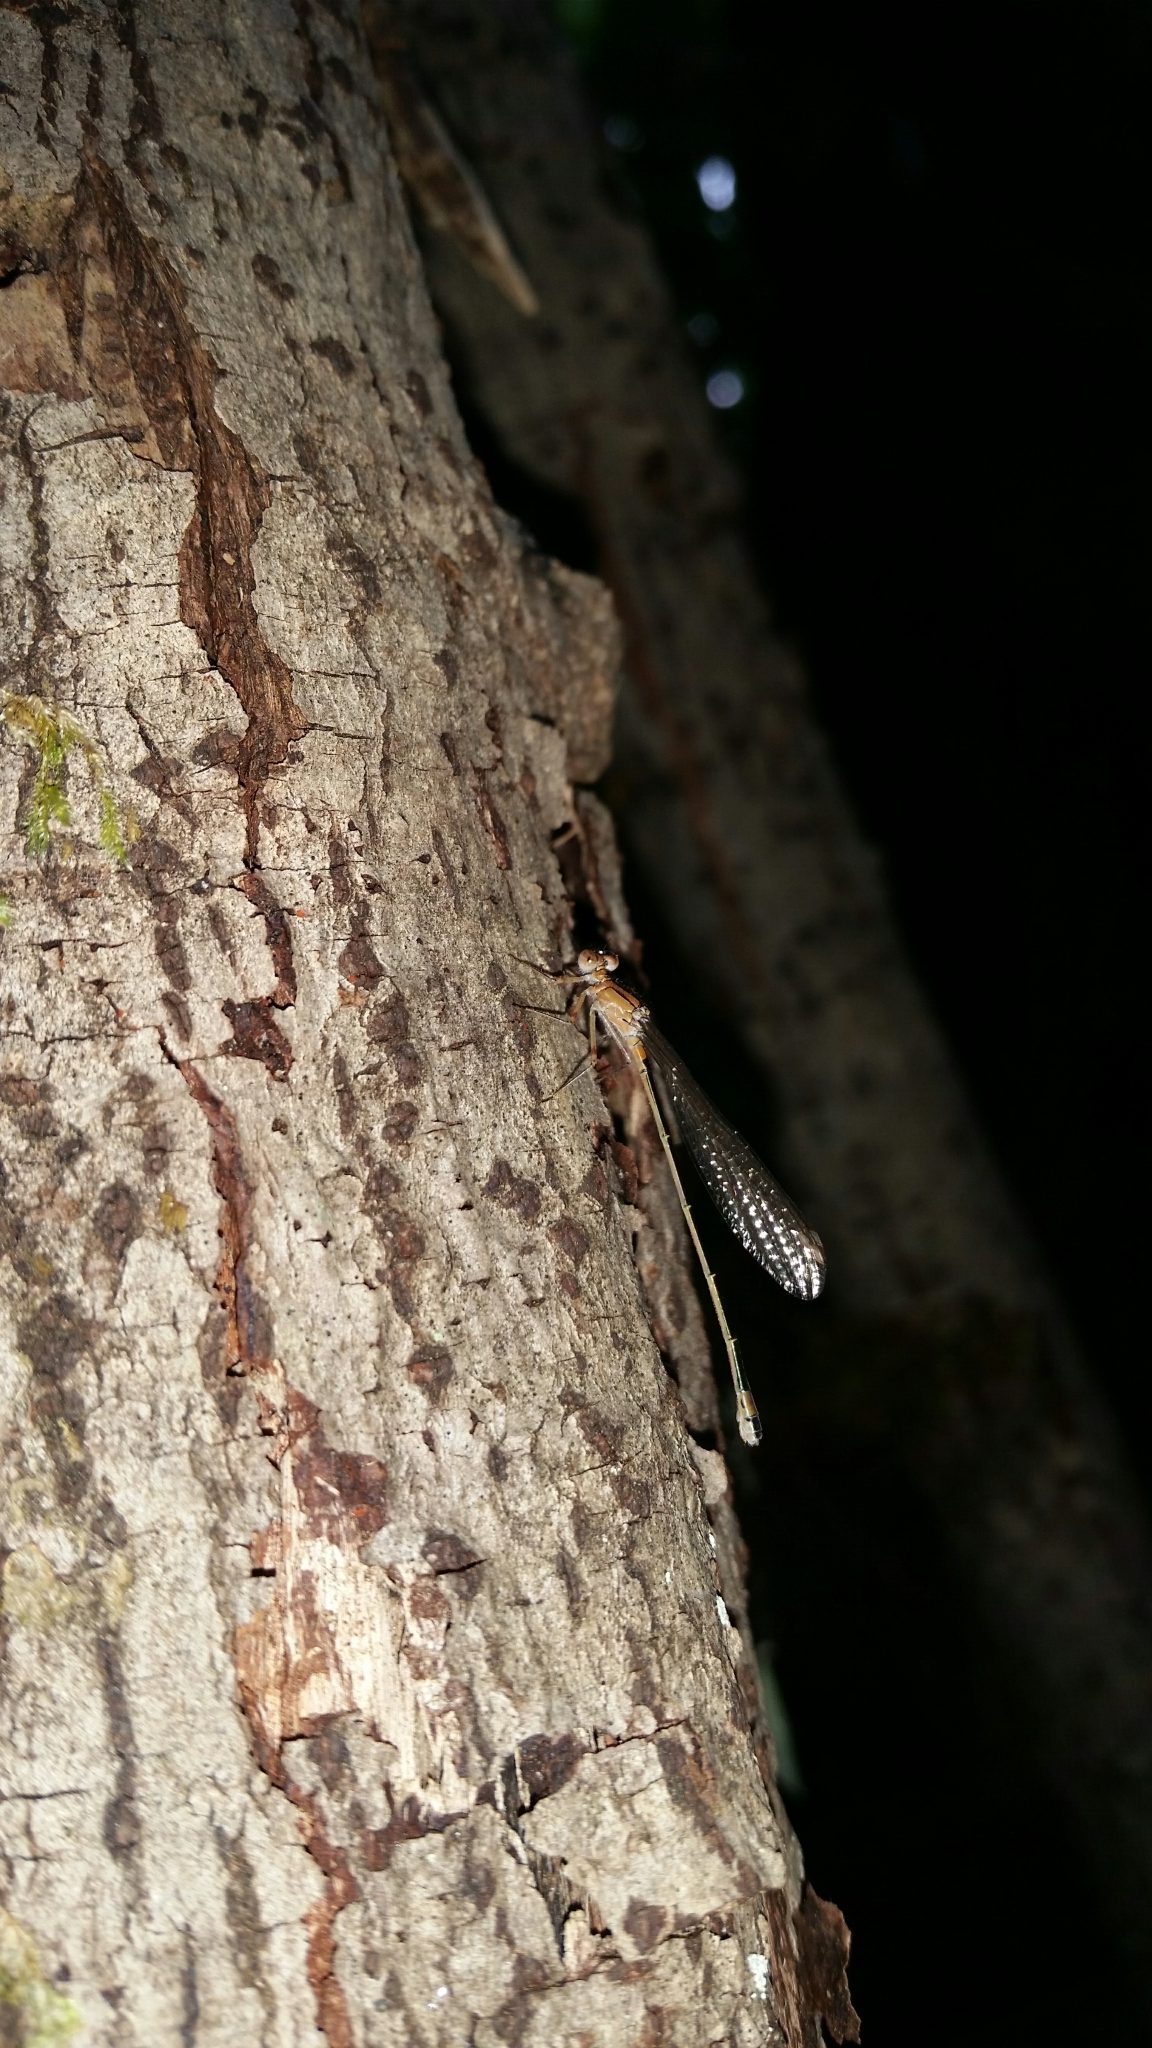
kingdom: Animalia
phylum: Arthropoda
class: Insecta
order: Odonata
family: Coenagrionidae
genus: Ischnura
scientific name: Ischnura cervula
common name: Pacific forktail
